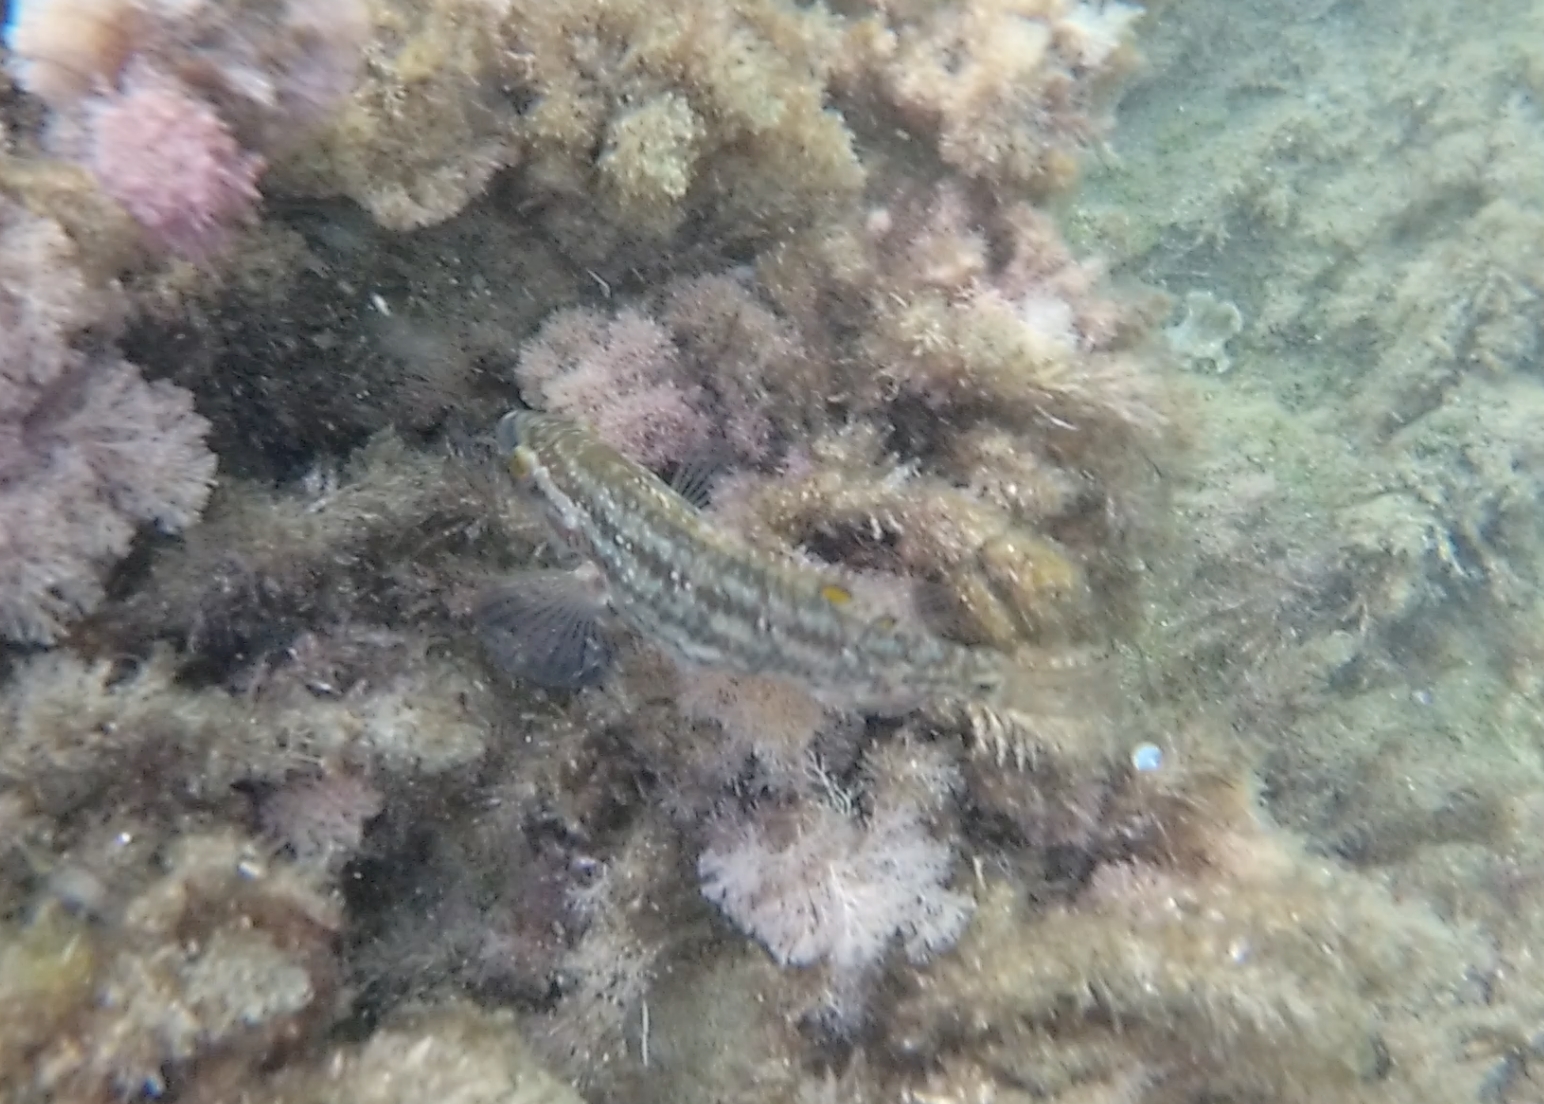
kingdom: Animalia
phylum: Chordata
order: Perciformes
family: Labridae
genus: Symphodus
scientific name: Symphodus roissali
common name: Five-spotted wrasse
